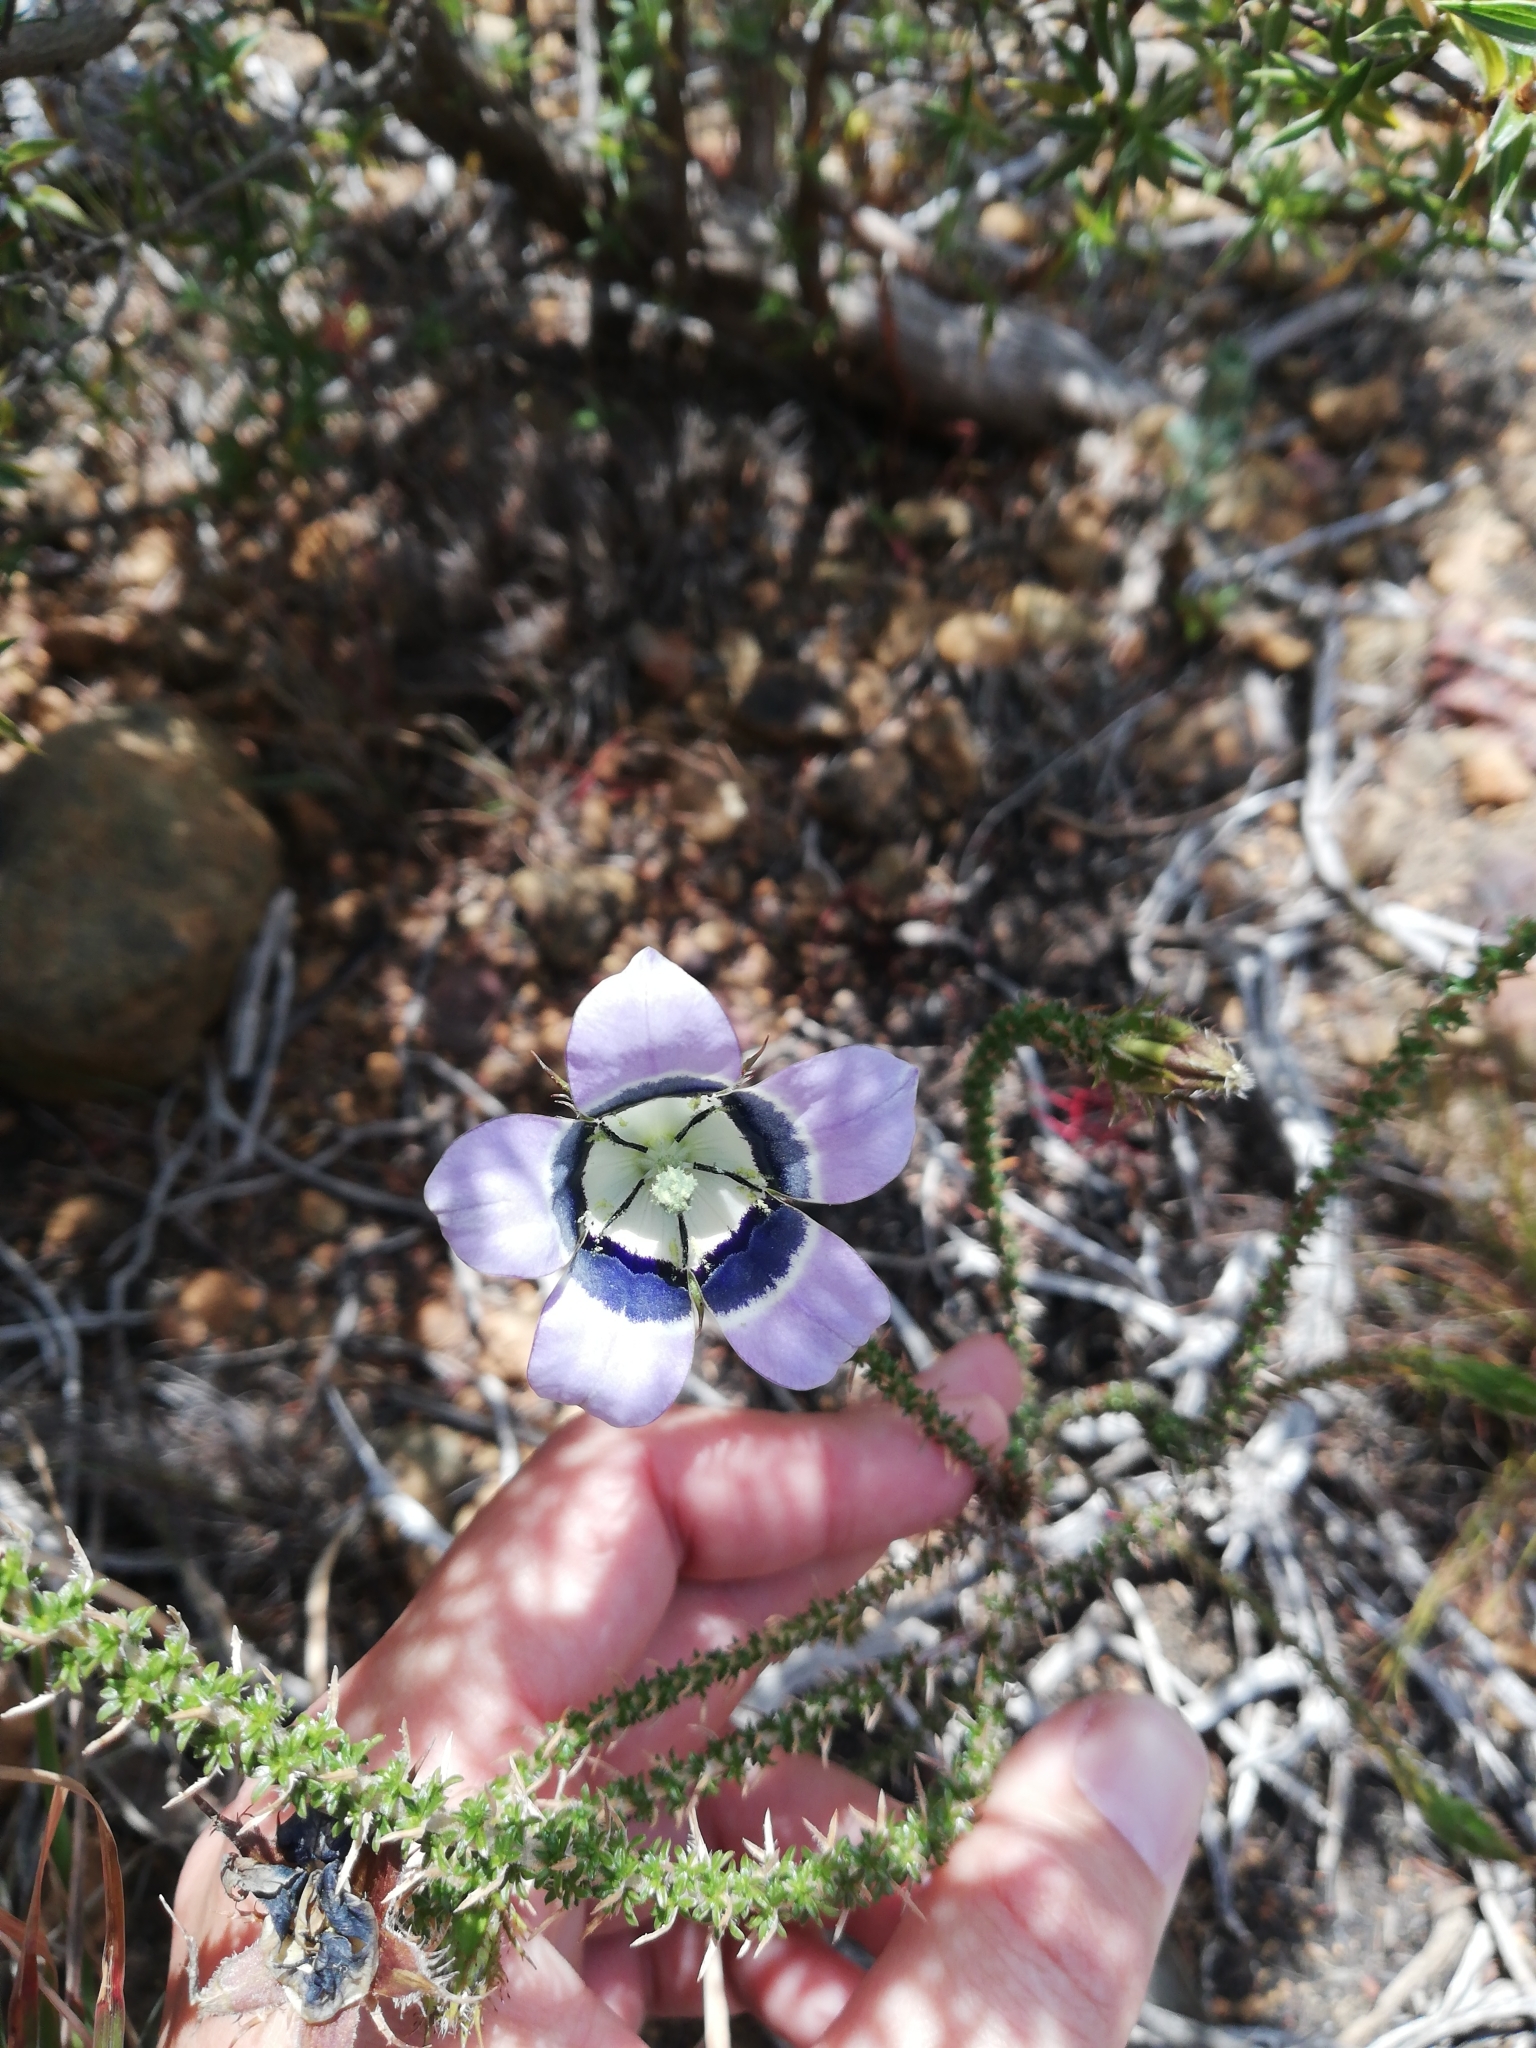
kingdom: Plantae
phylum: Tracheophyta
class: Magnoliopsida
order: Asterales
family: Campanulaceae
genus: Roella
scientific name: Roella ciliata
